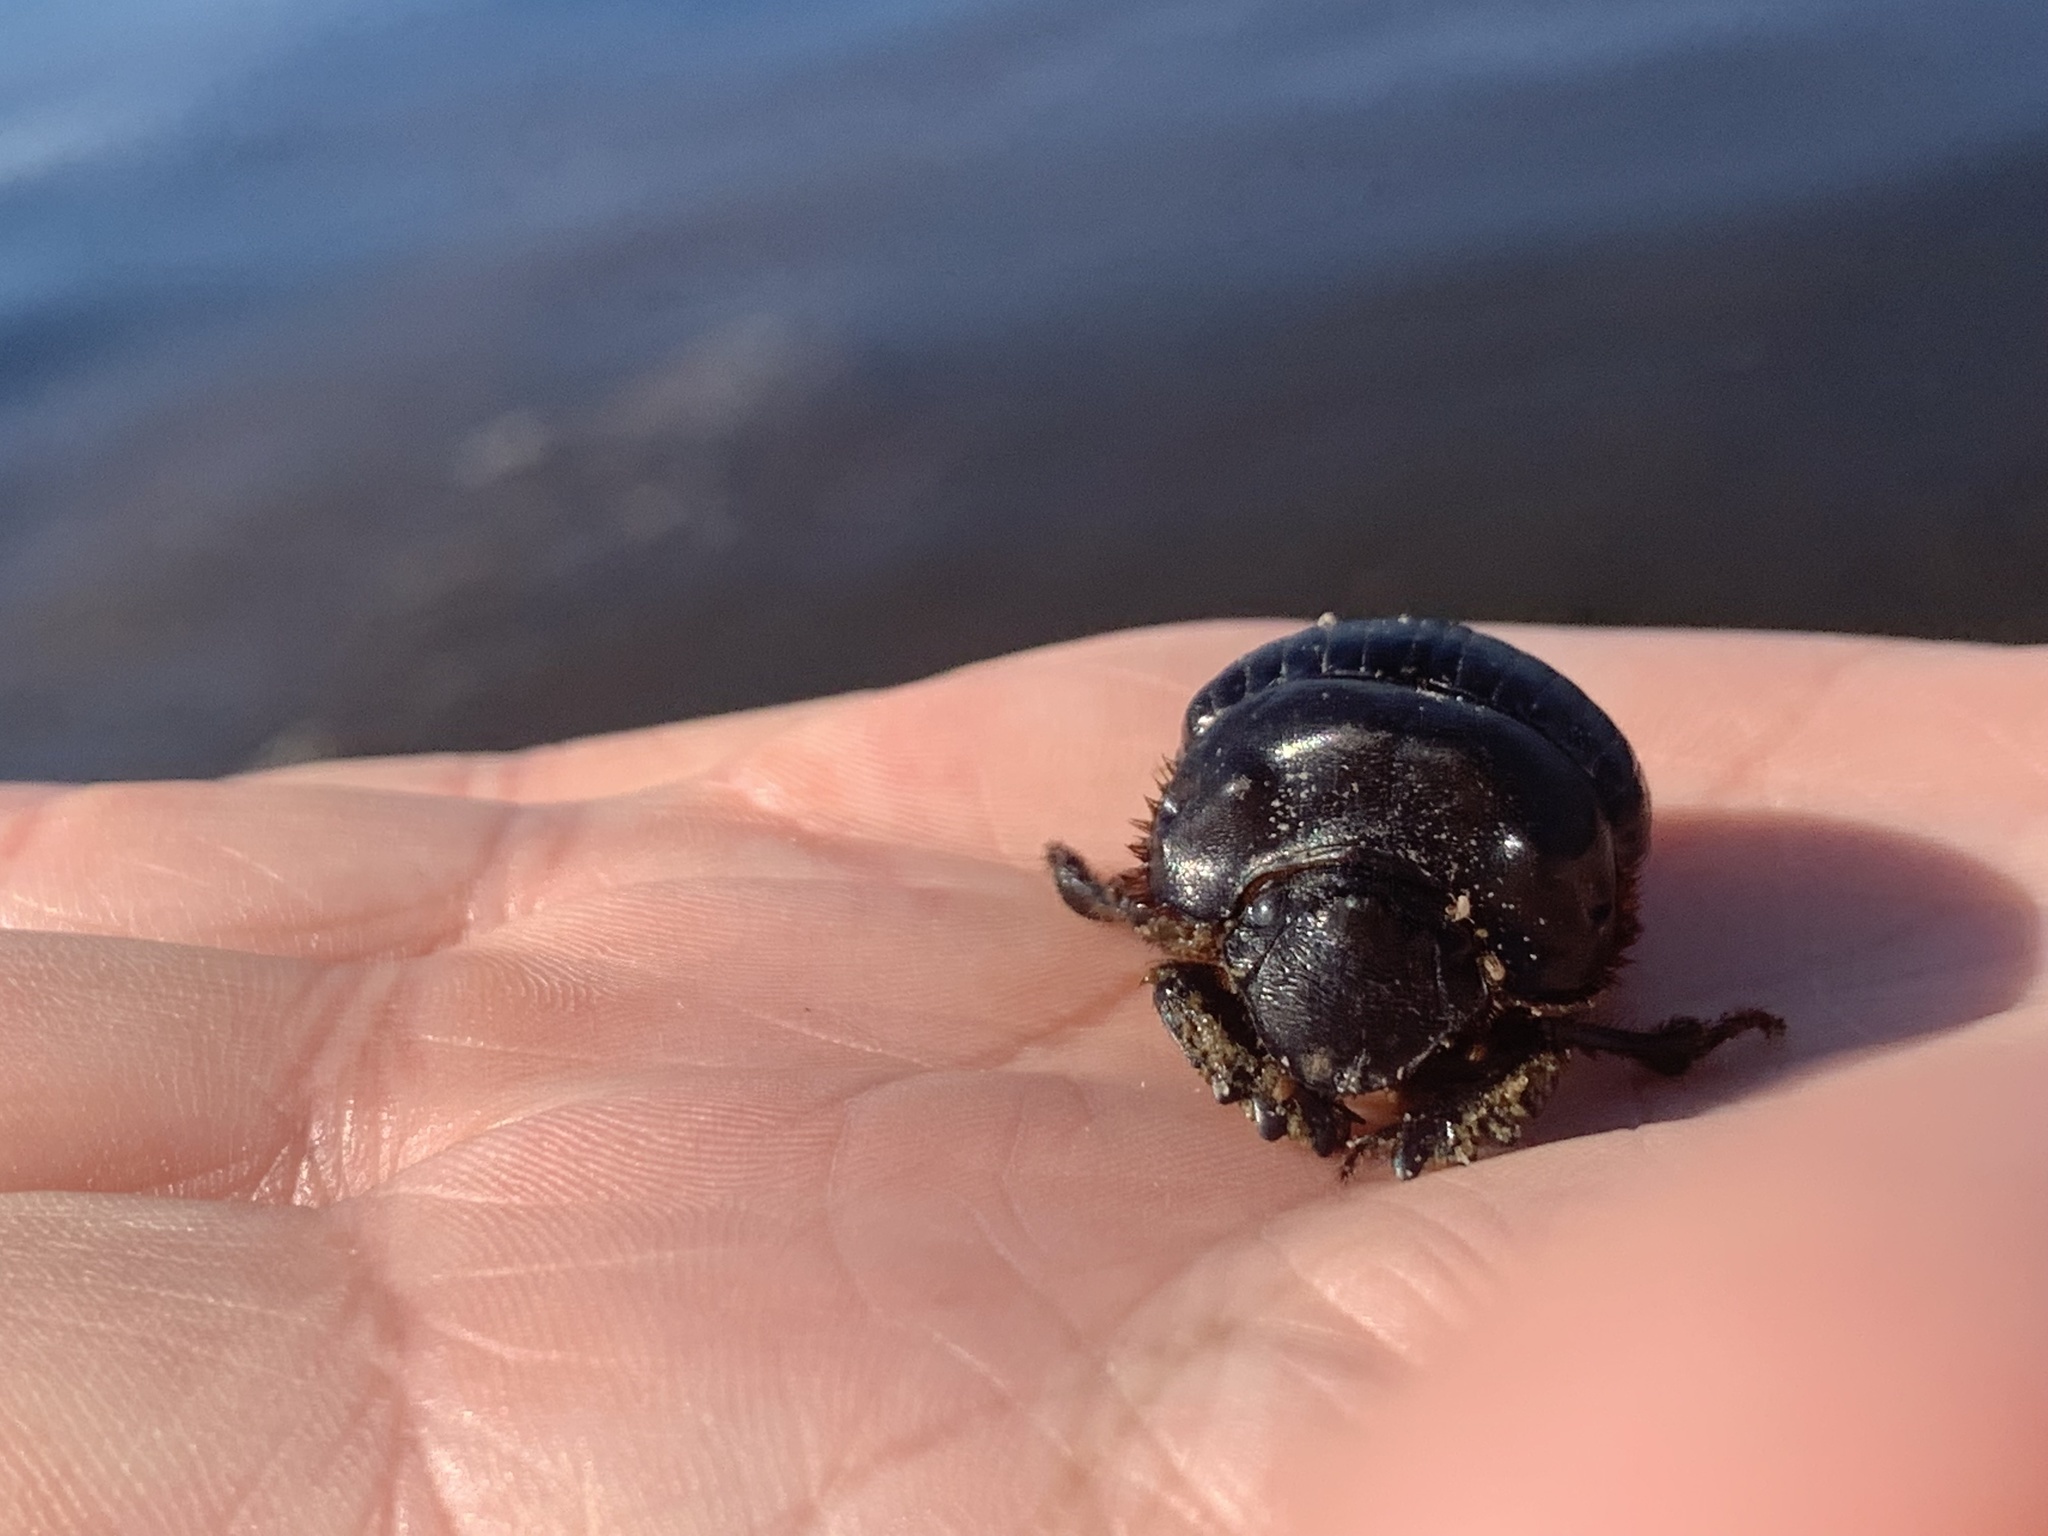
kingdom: Animalia
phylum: Arthropoda
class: Insecta
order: Coleoptera
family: Scarabaeidae
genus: Dichotomius
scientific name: Dichotomius carolinus
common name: Carolina copris
